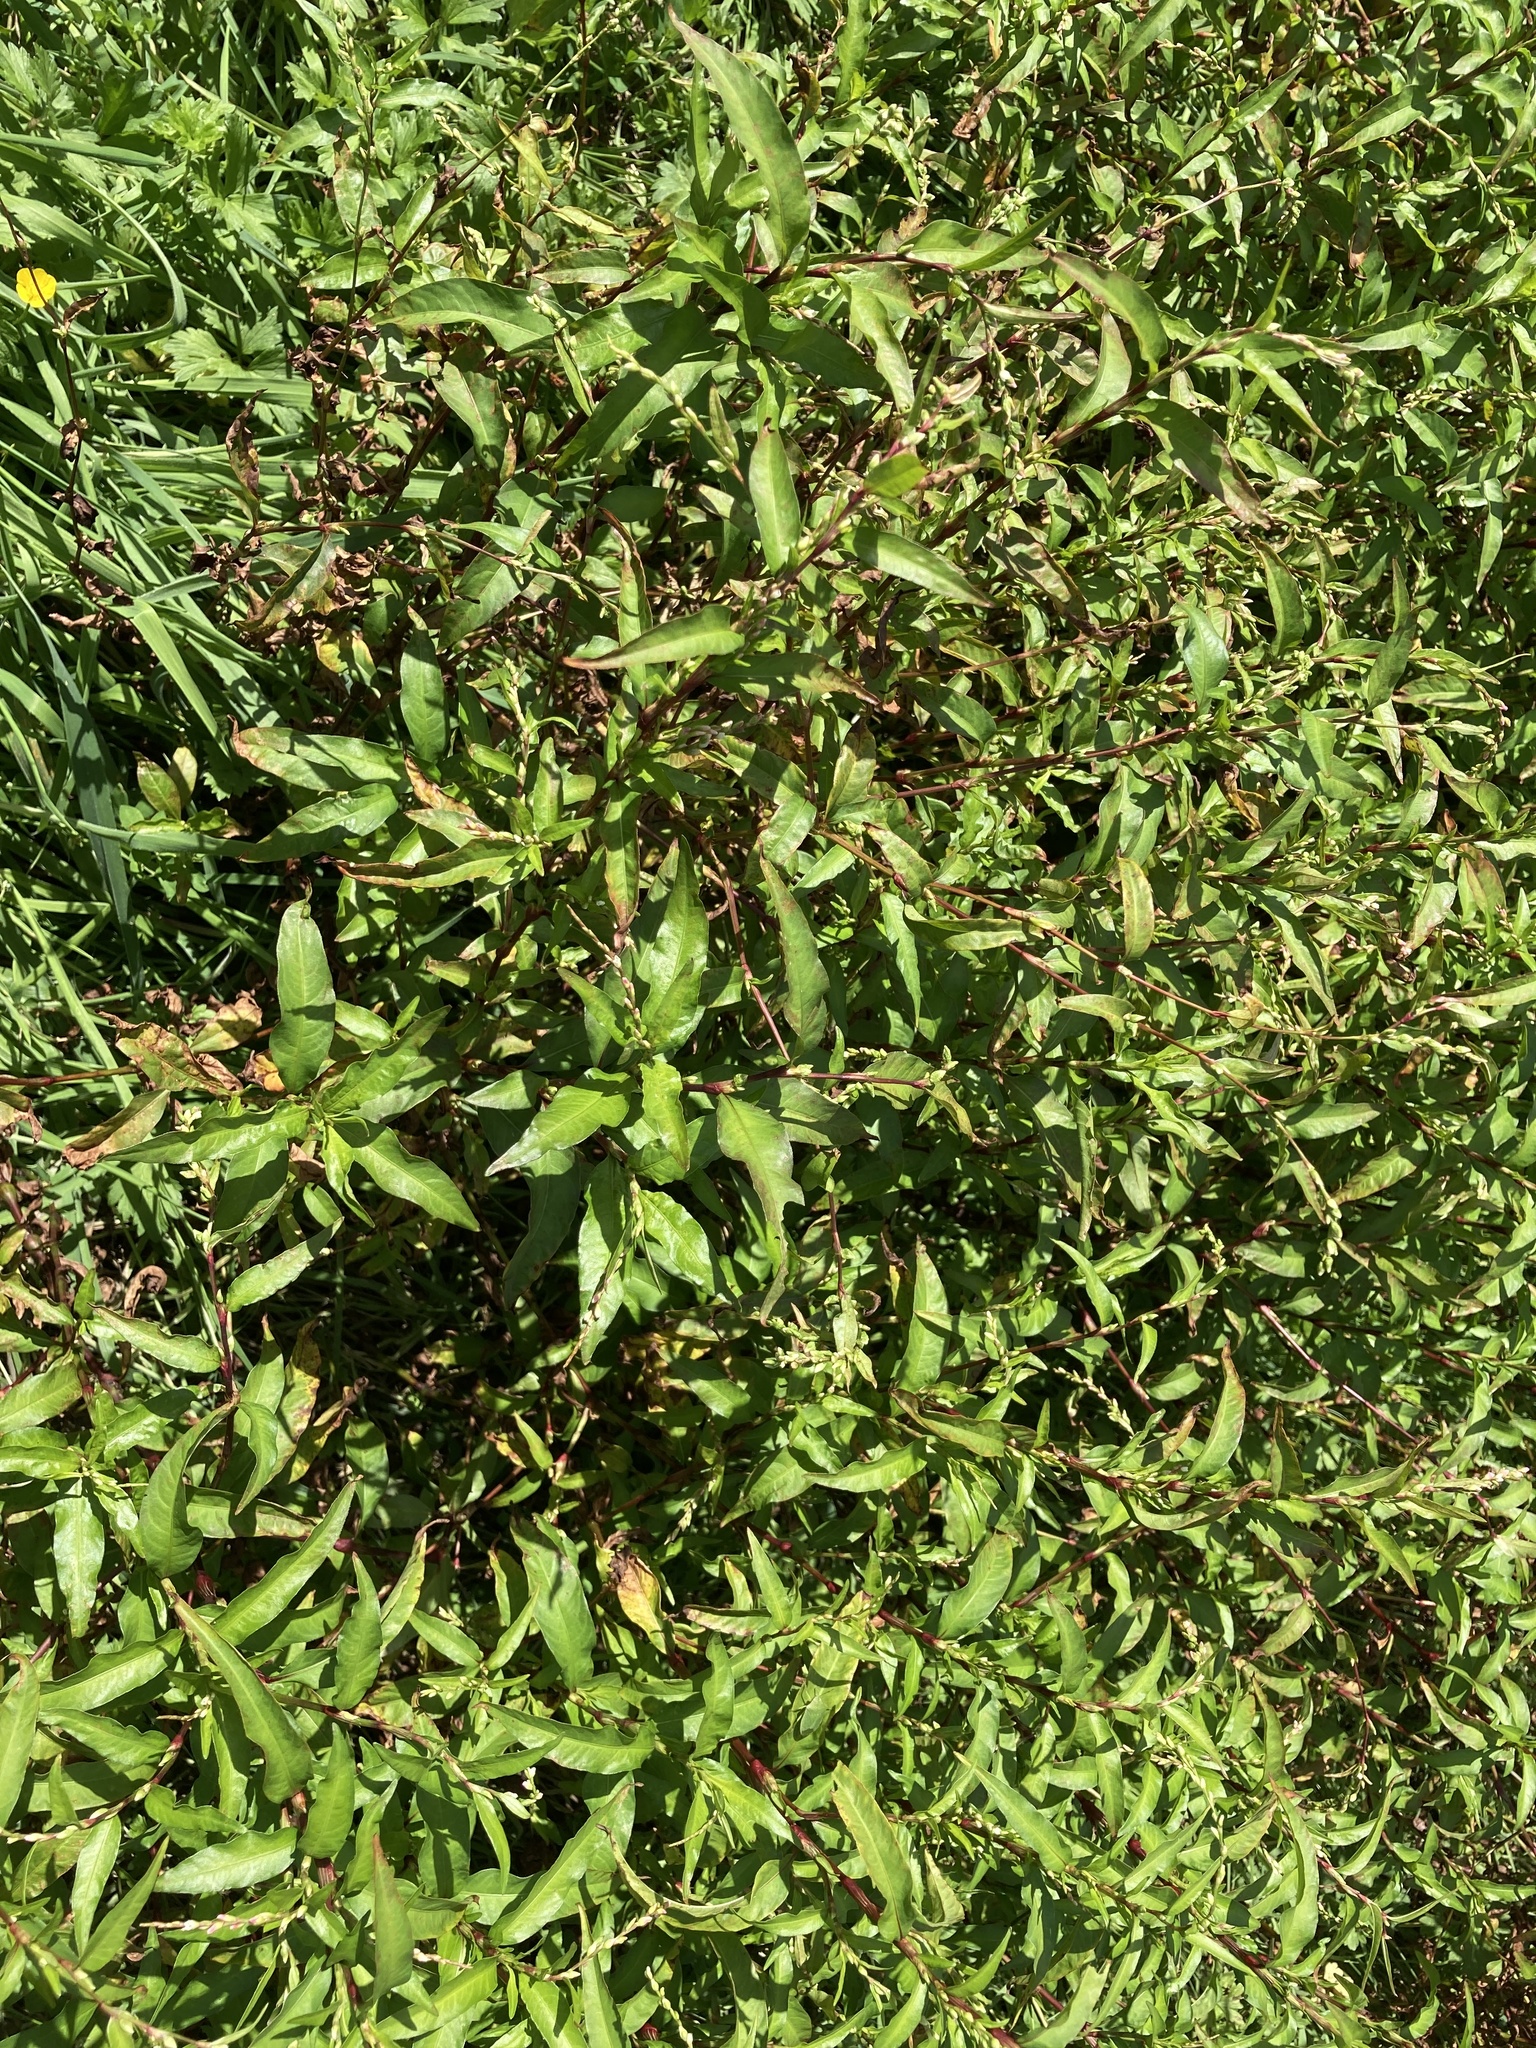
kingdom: Plantae
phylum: Tracheophyta
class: Magnoliopsida
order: Caryophyllales
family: Polygonaceae
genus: Persicaria
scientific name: Persicaria hydropiper
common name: Water-pepper
